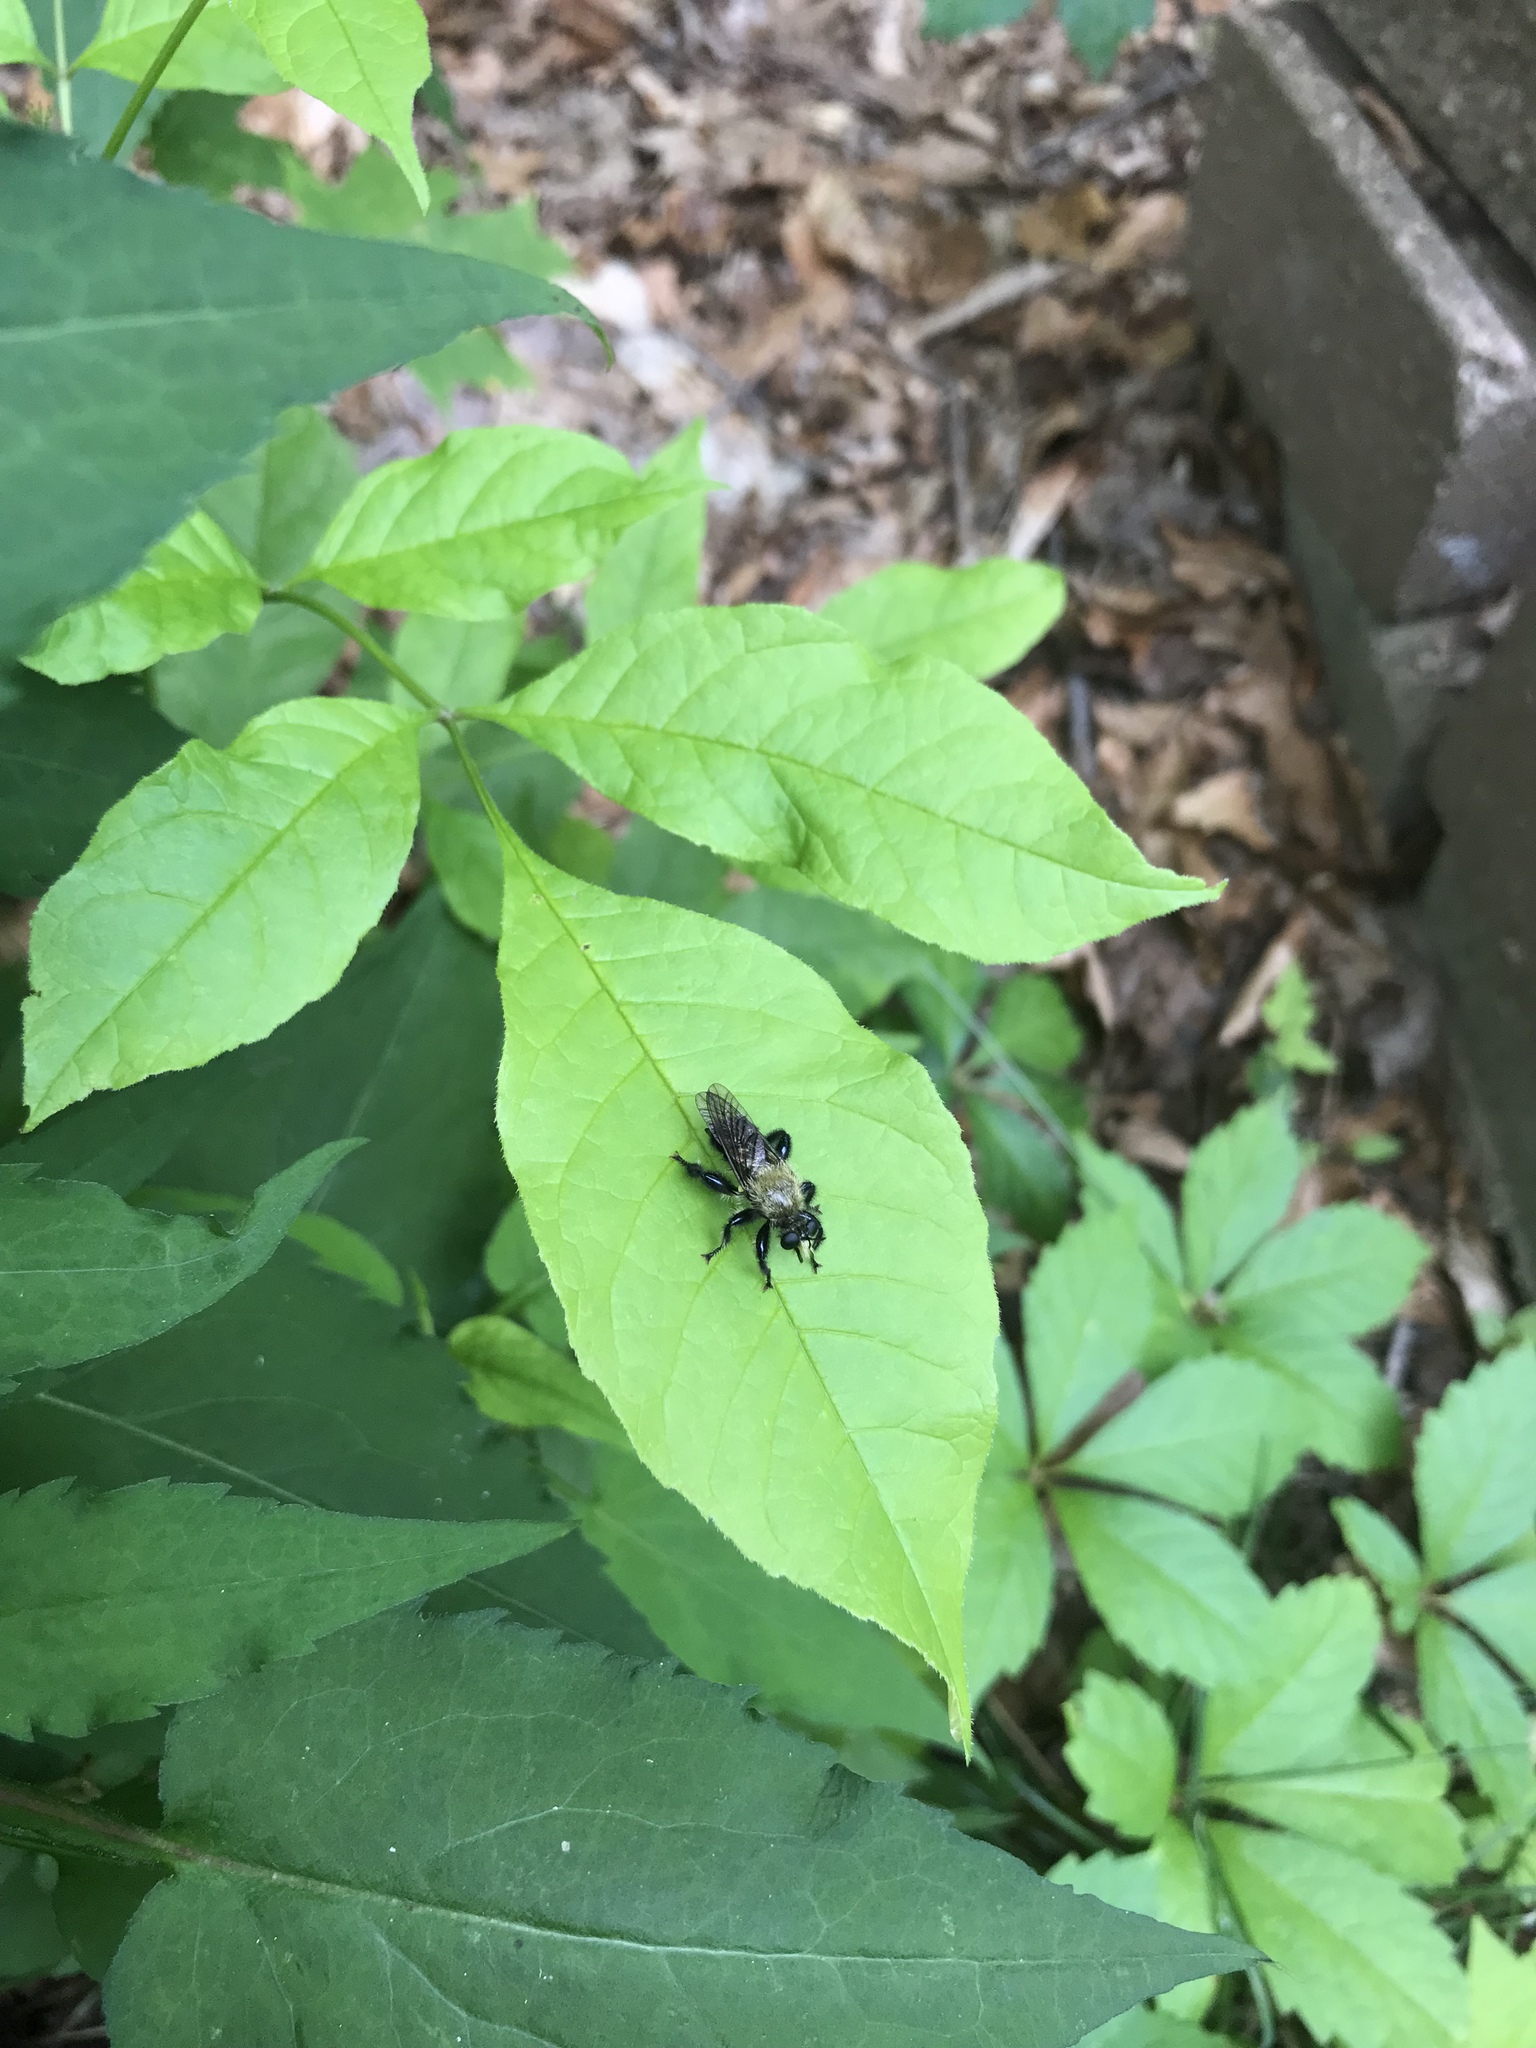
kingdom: Animalia
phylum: Arthropoda
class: Insecta
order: Diptera
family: Asilidae
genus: Laphria
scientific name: Laphria flavicollis
